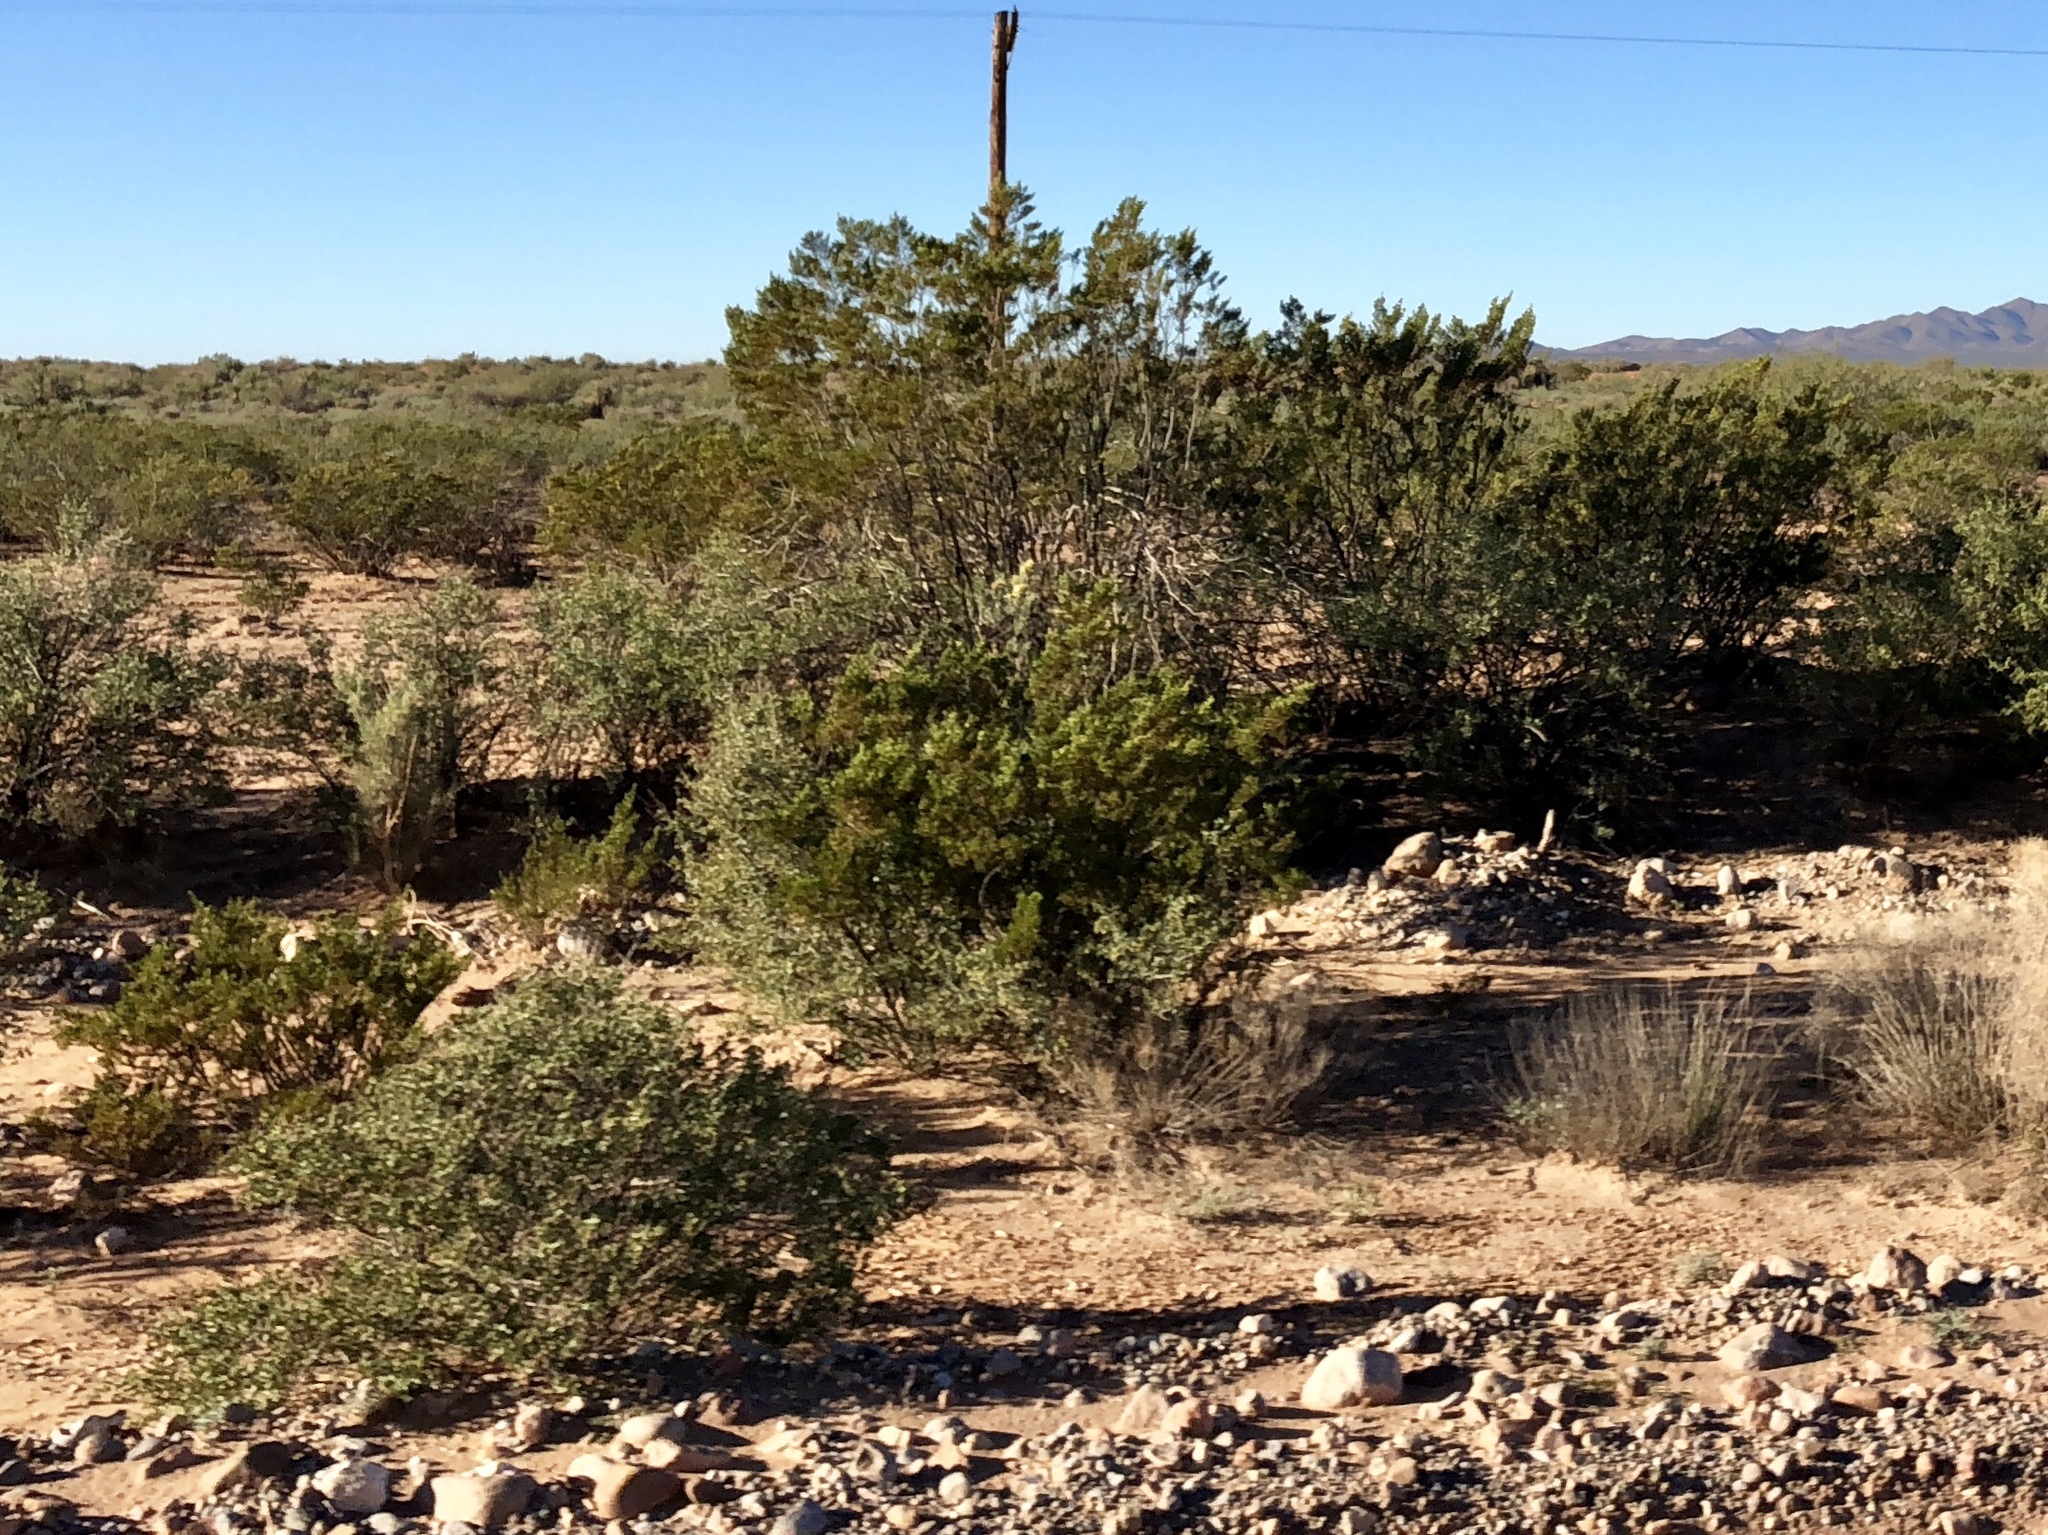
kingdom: Plantae
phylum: Tracheophyta
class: Magnoliopsida
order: Zygophyllales
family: Zygophyllaceae
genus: Larrea
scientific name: Larrea tridentata
